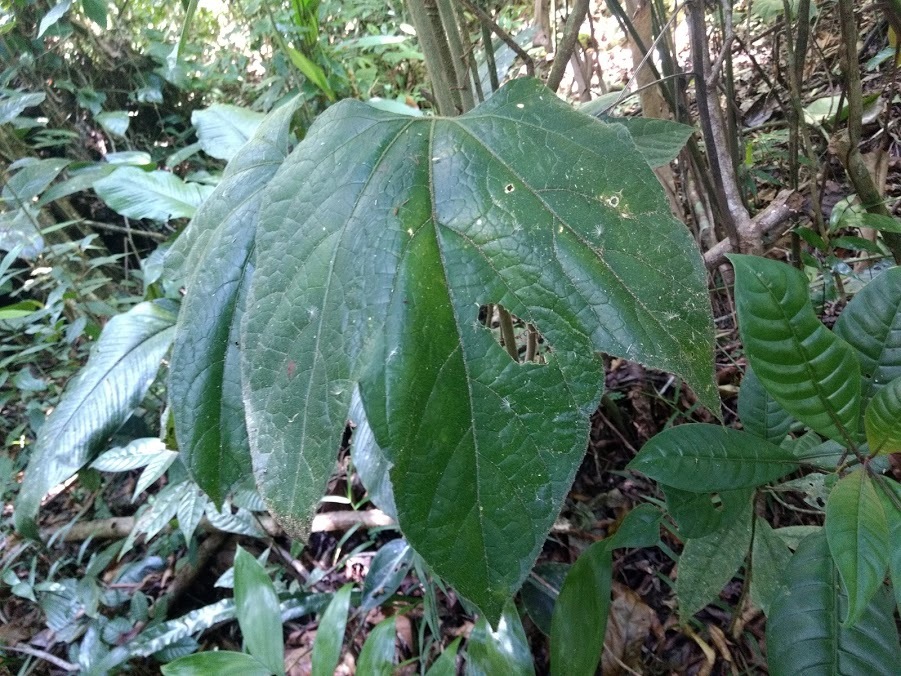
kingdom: Plantae
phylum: Tracheophyta
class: Magnoliopsida
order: Cucurbitales
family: Cucurbitaceae
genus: Gurania
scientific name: Gurania makoyana
